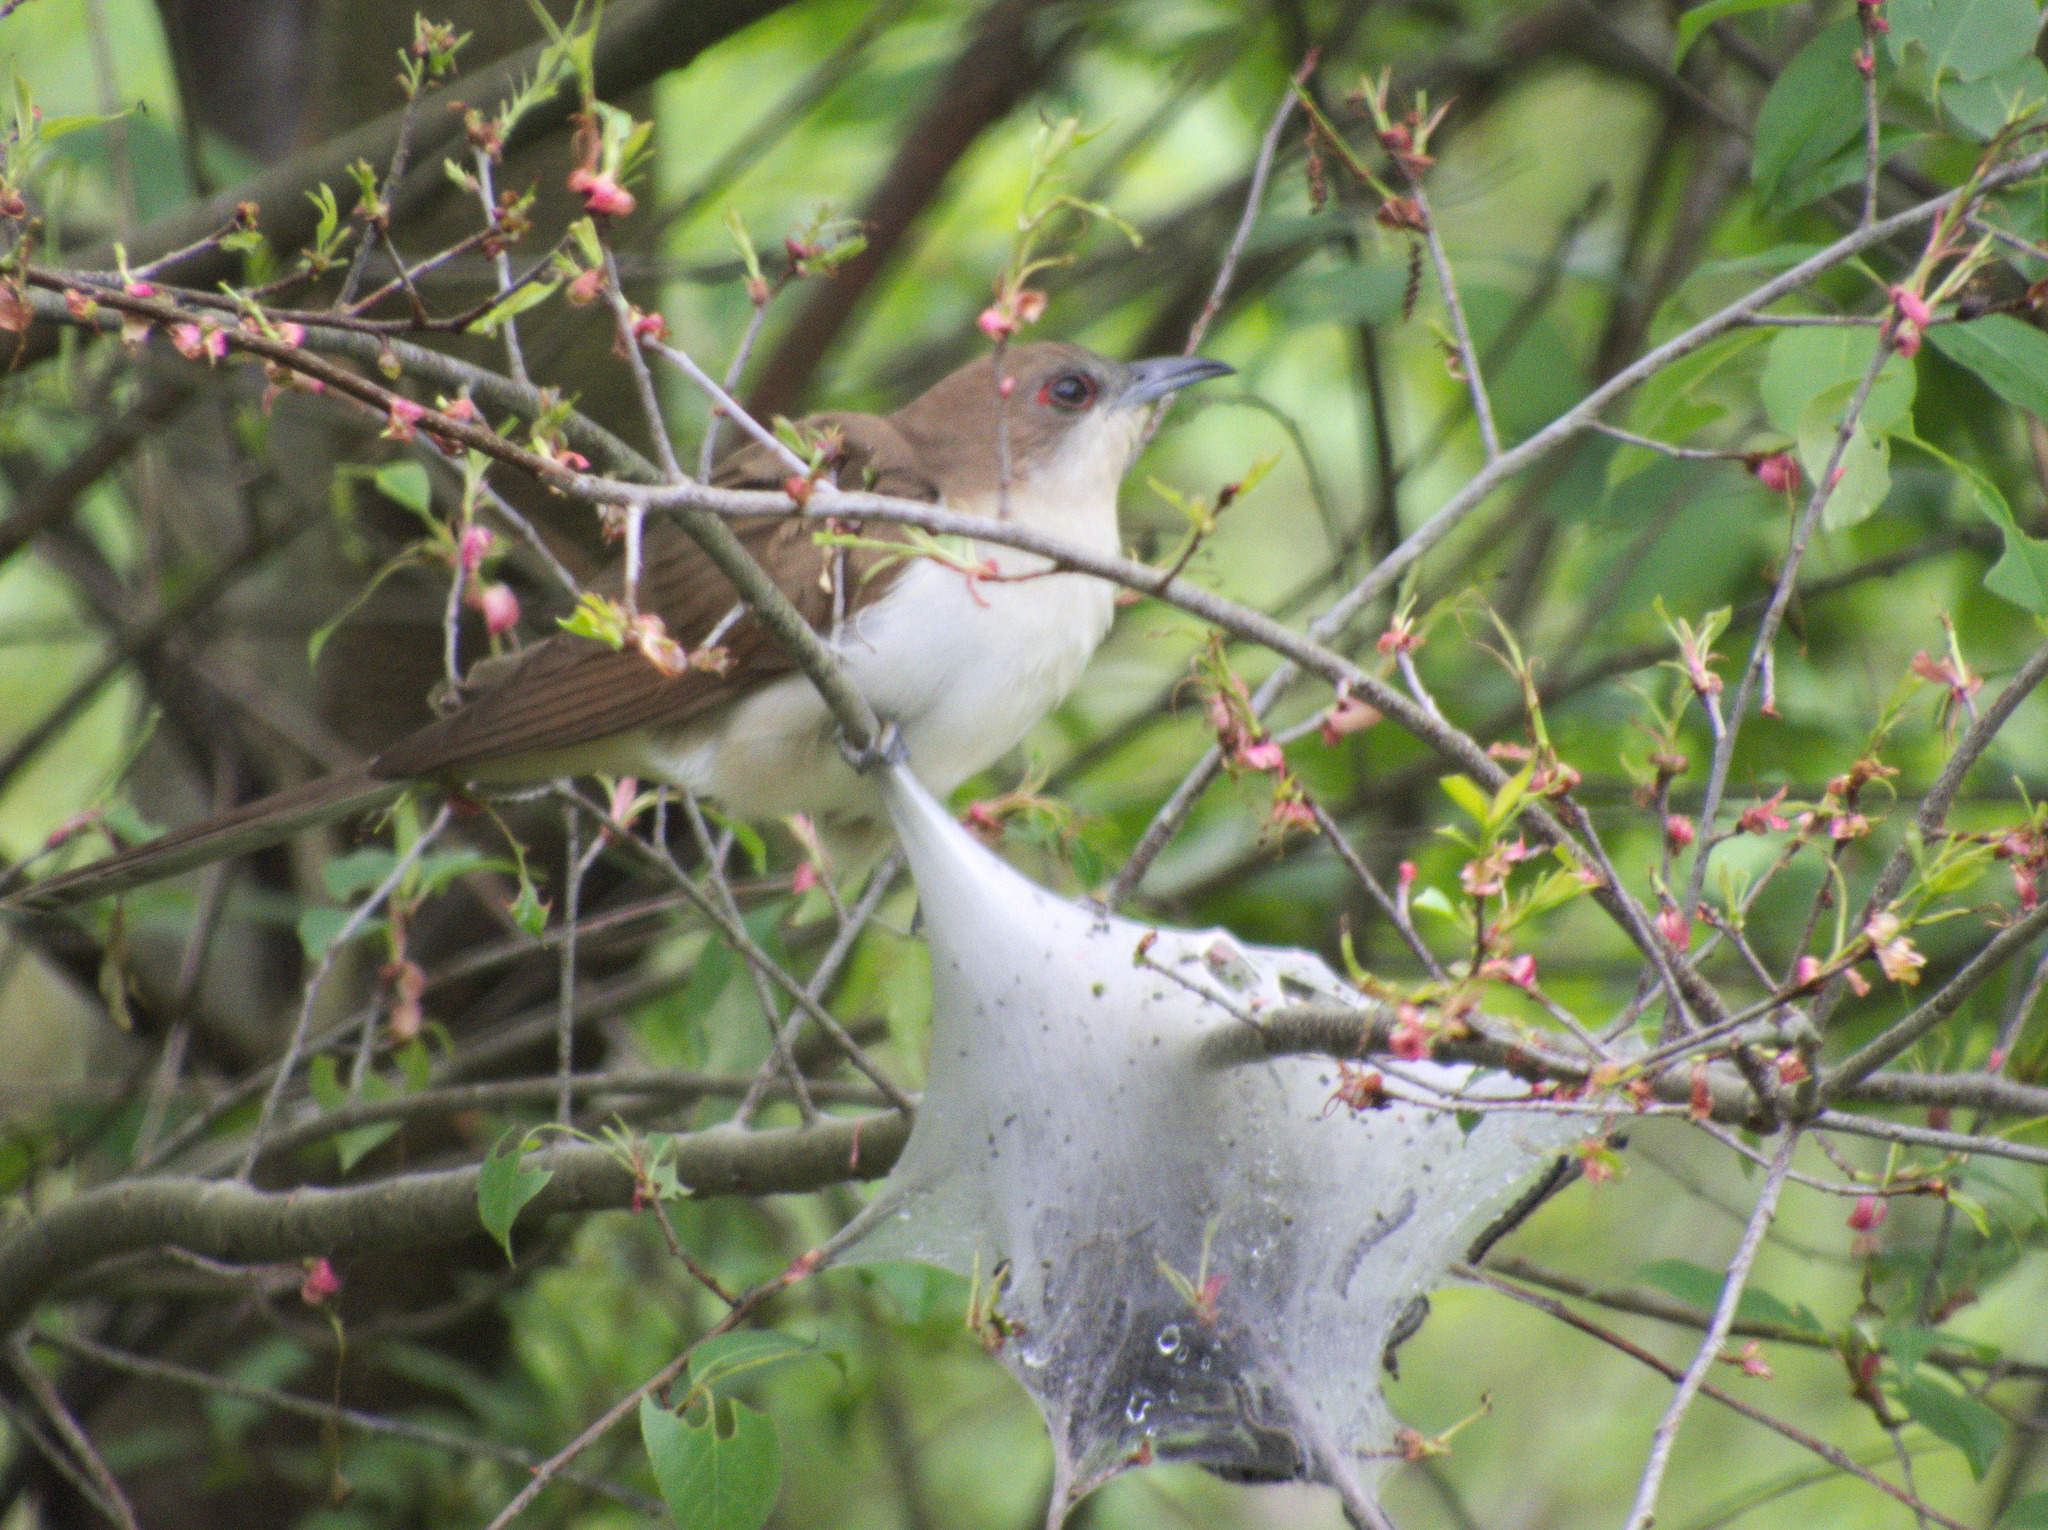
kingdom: Animalia
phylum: Chordata
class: Aves
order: Cuculiformes
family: Cuculidae
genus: Coccyzus
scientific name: Coccyzus erythropthalmus
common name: Black-billed cuckoo
